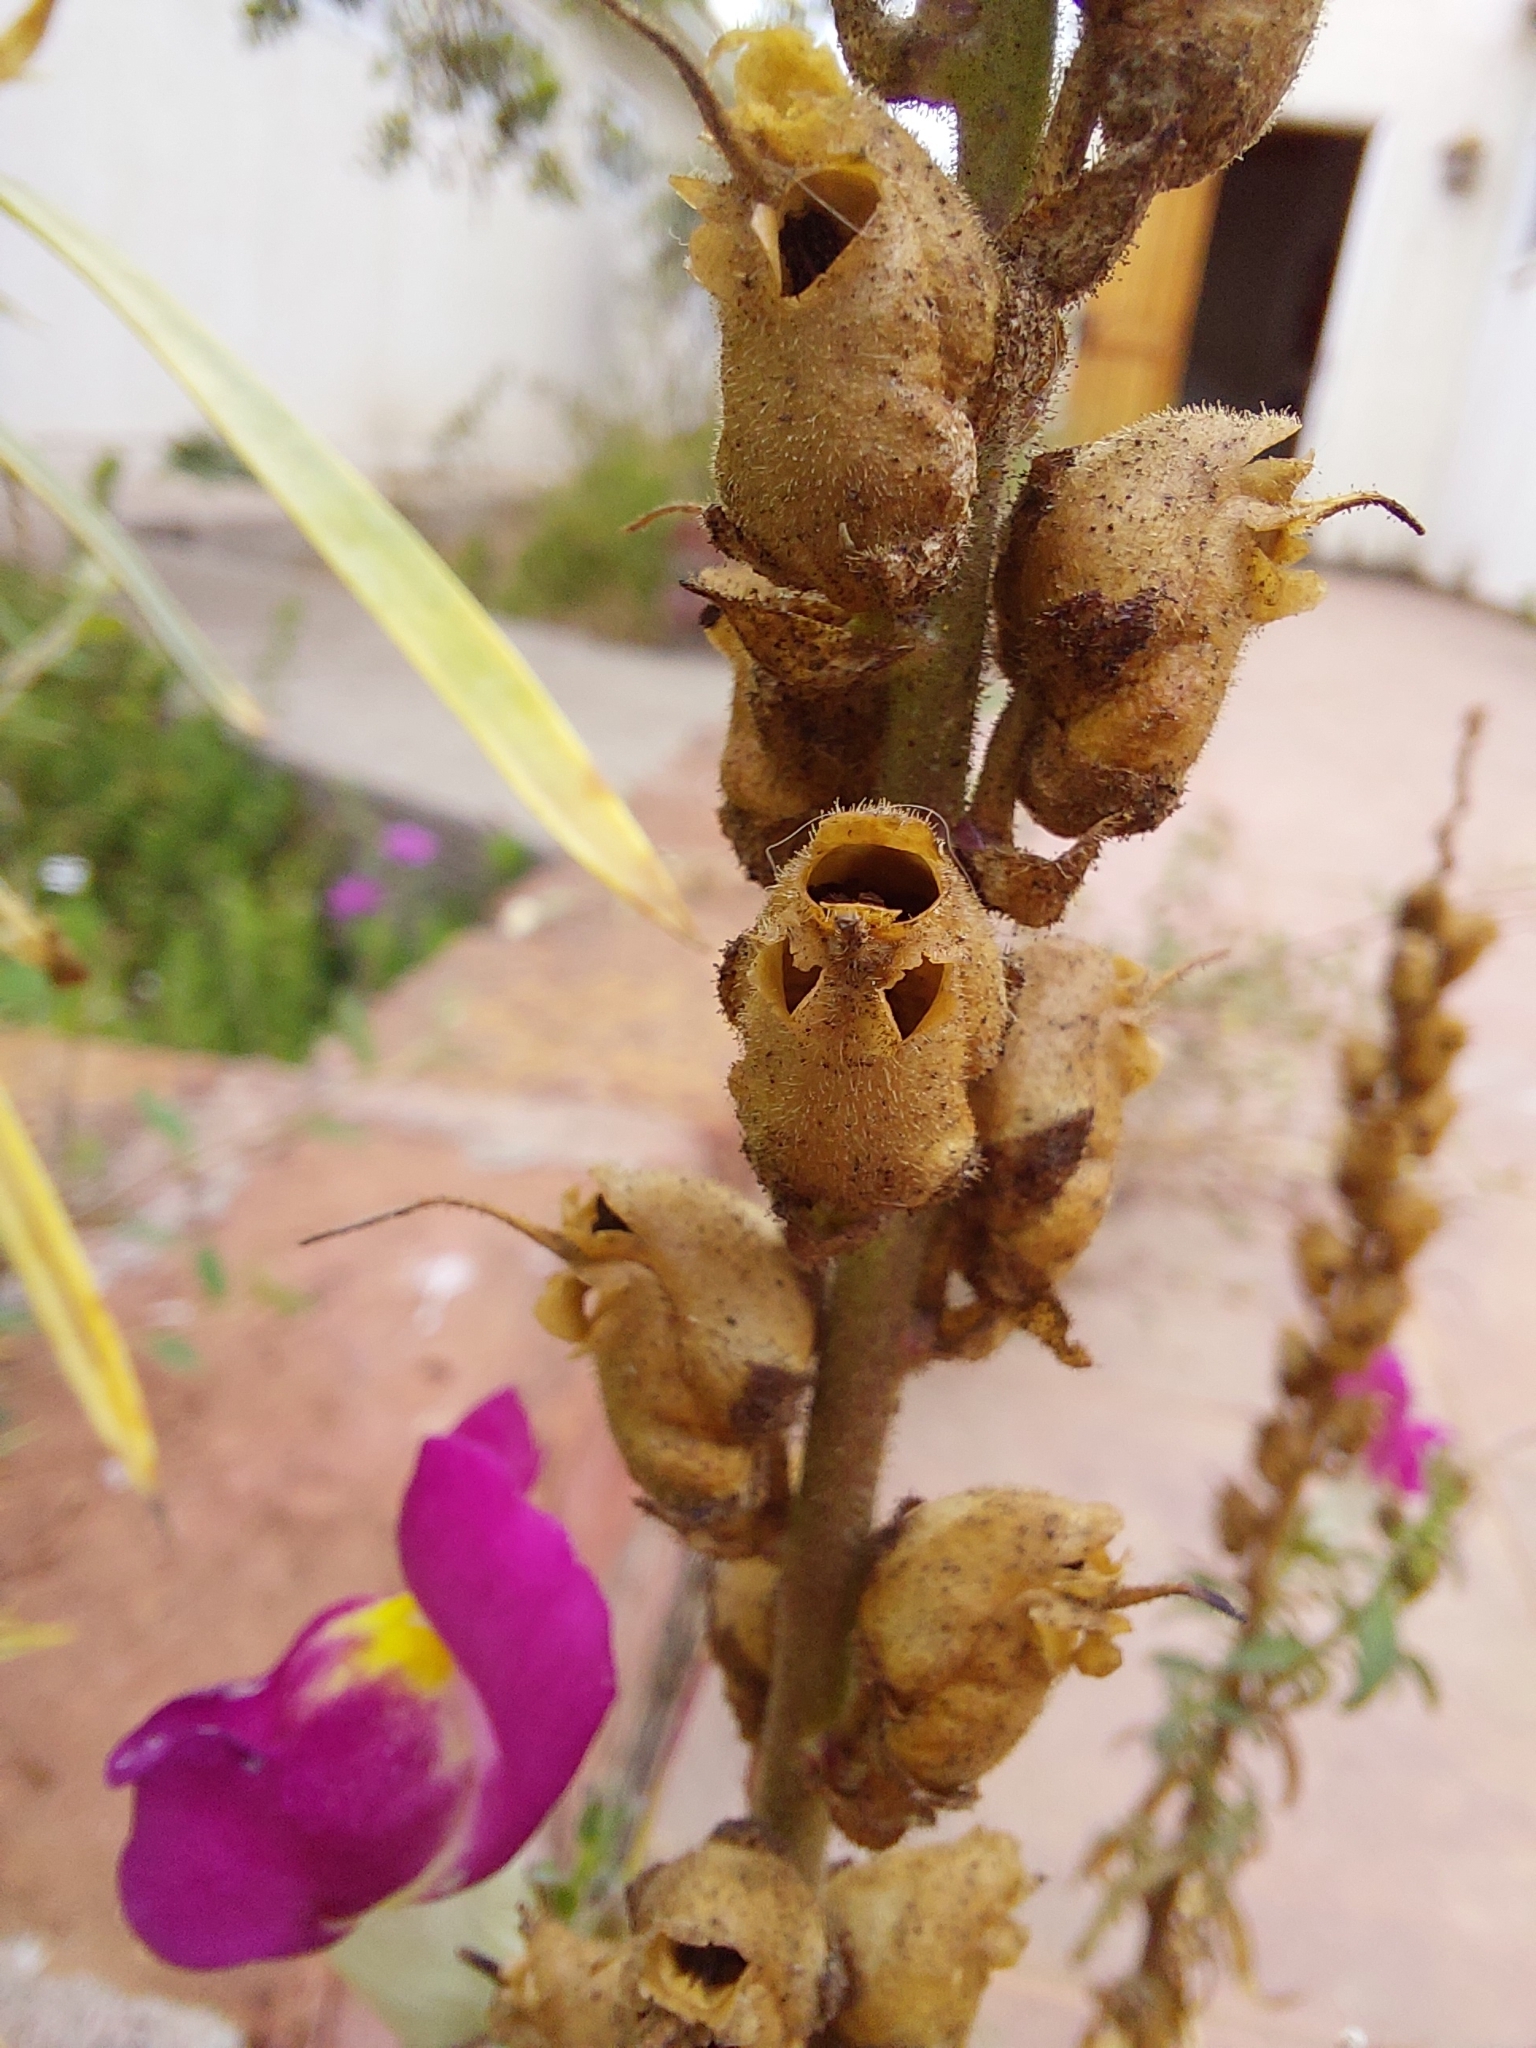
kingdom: Plantae
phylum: Tracheophyta
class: Magnoliopsida
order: Lamiales
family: Plantaginaceae
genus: Antirrhinum
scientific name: Antirrhinum majus
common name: Snapdragon
